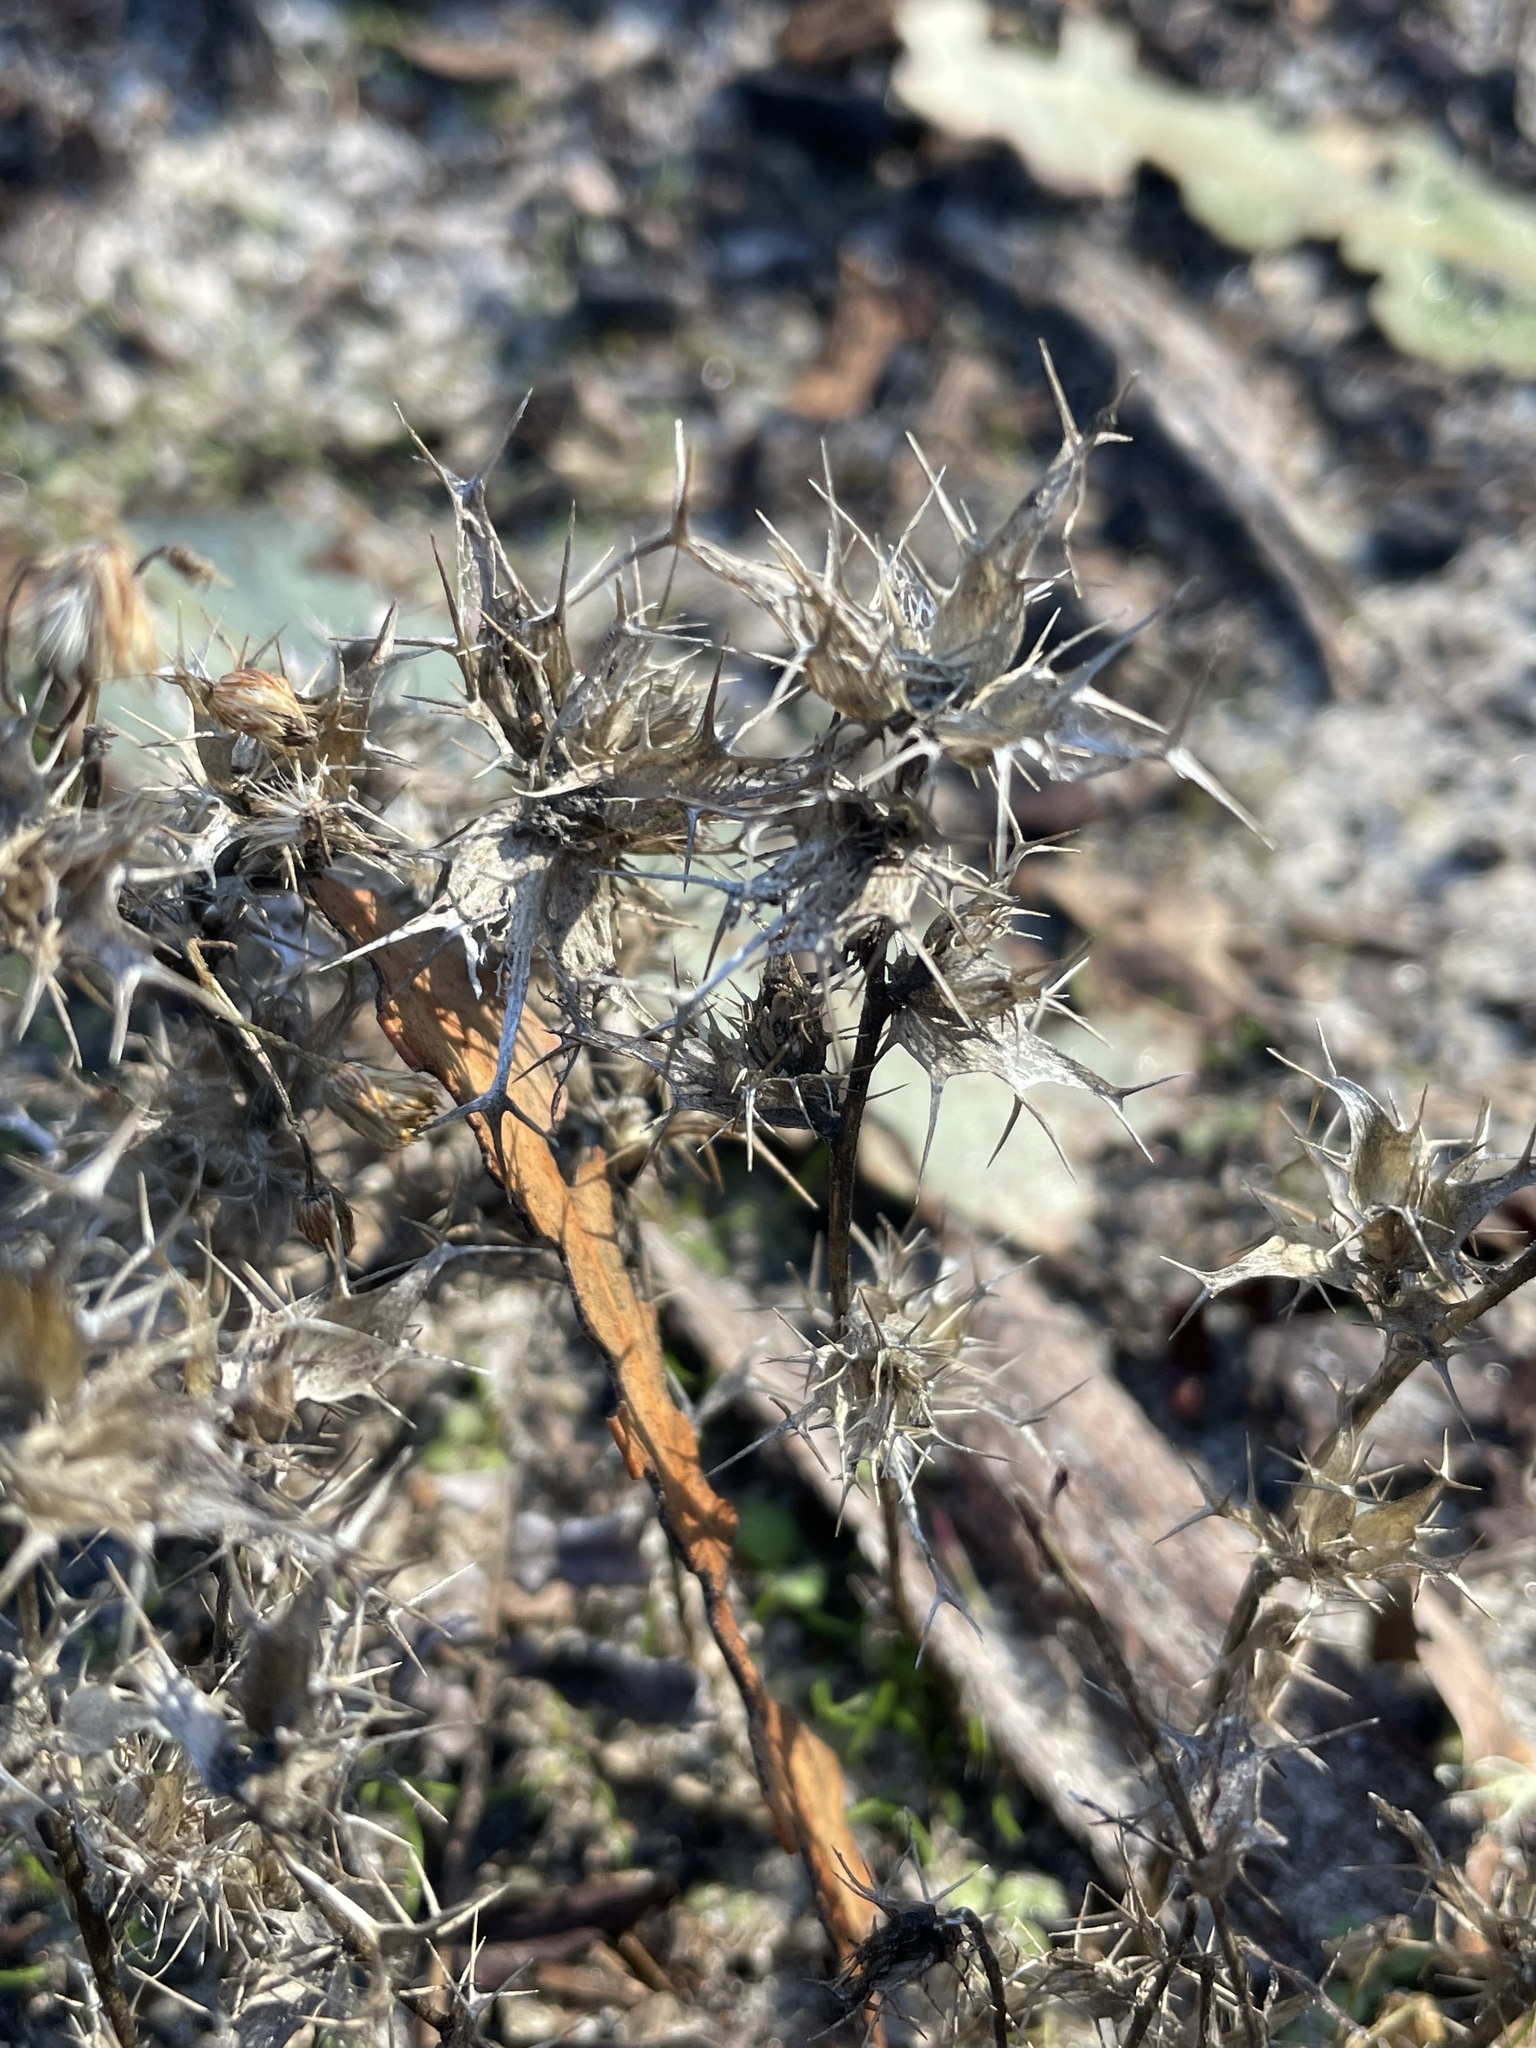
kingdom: Plantae
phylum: Tracheophyta
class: Magnoliopsida
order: Ericales
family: Polemoniaceae
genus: Navarretia
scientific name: Navarretia hamata
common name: Hooked navarretia
